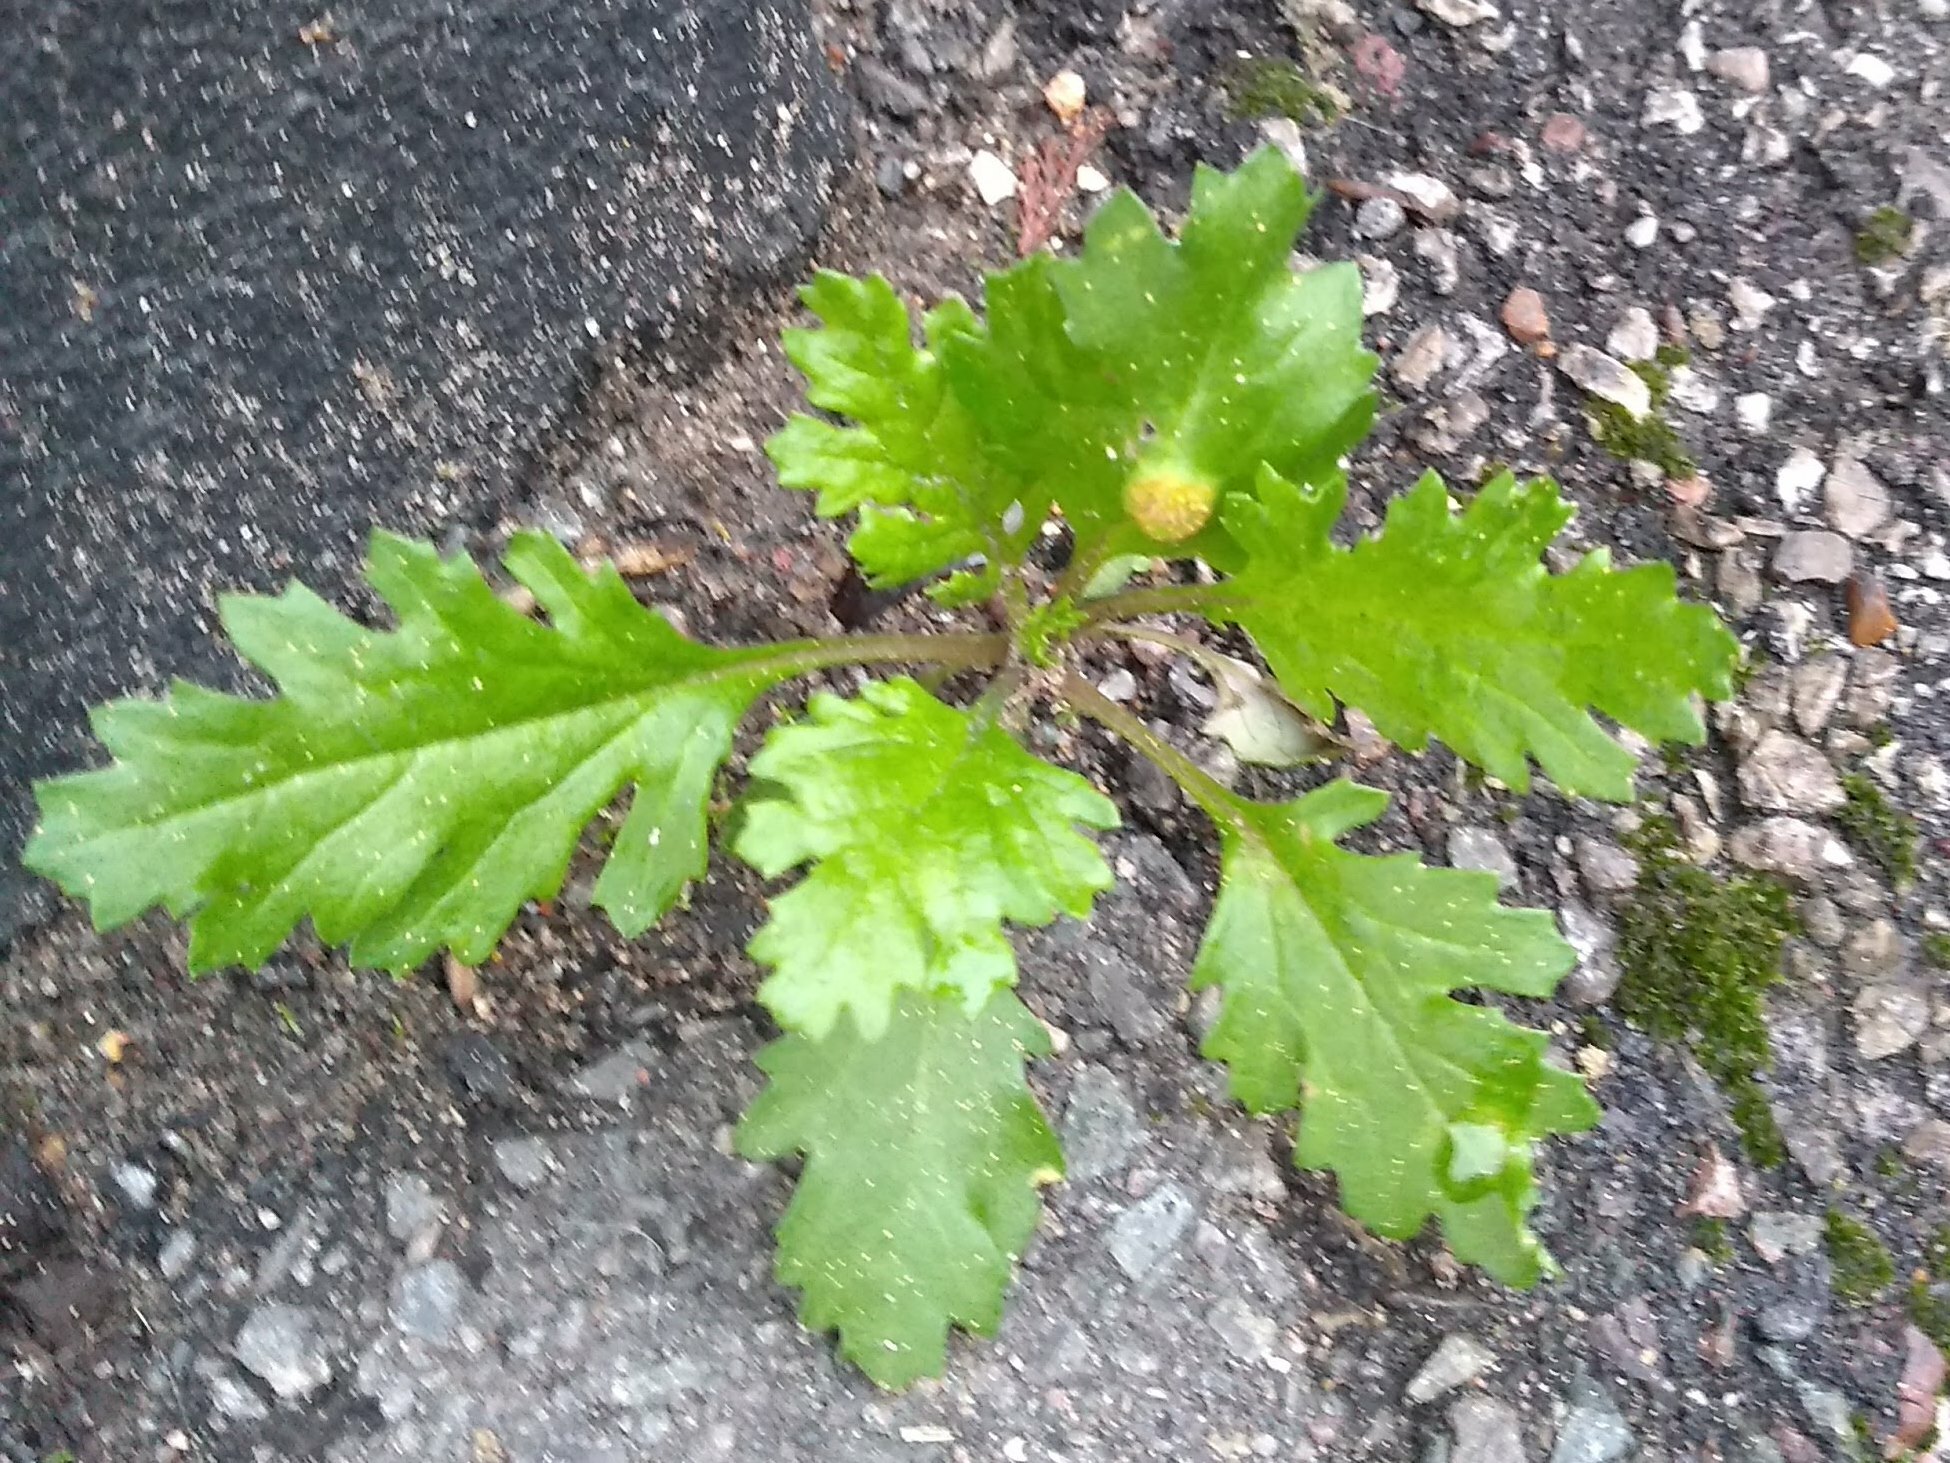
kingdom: Fungi
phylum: Basidiomycota
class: Pucciniomycetes
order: Pucciniales
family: Pucciniaceae
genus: Puccinia
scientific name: Puccinia lagenophorae
